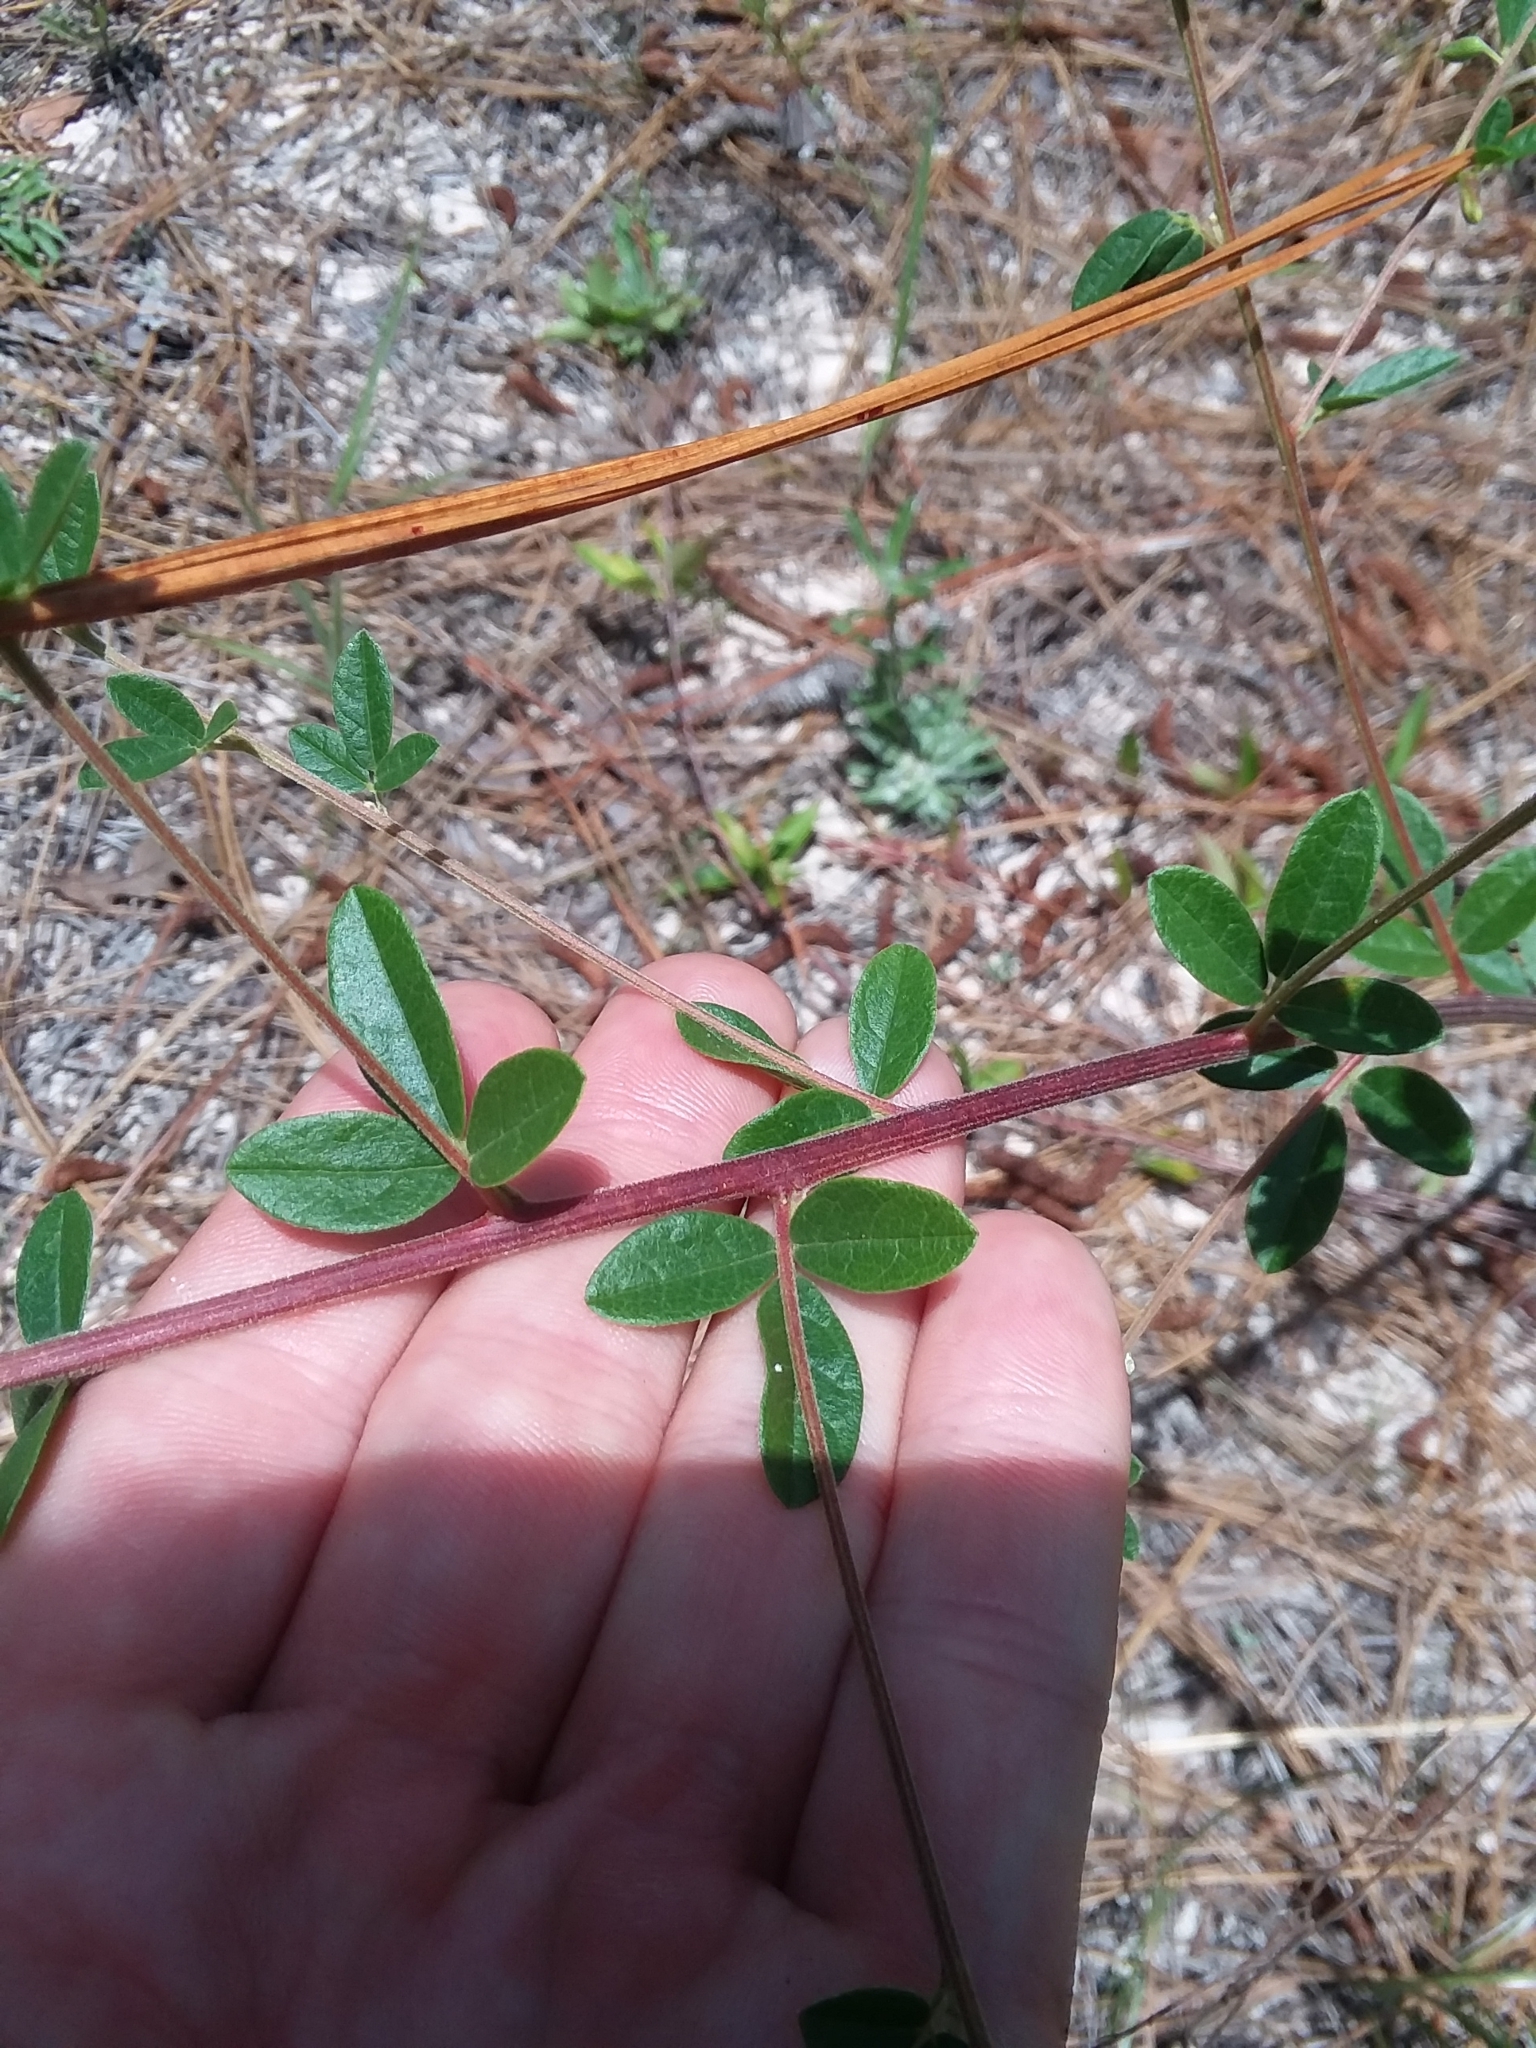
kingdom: Plantae
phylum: Tracheophyta
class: Magnoliopsida
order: Fabales
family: Fabaceae
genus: Rhynchosia
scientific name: Rhynchosia cytisoides
